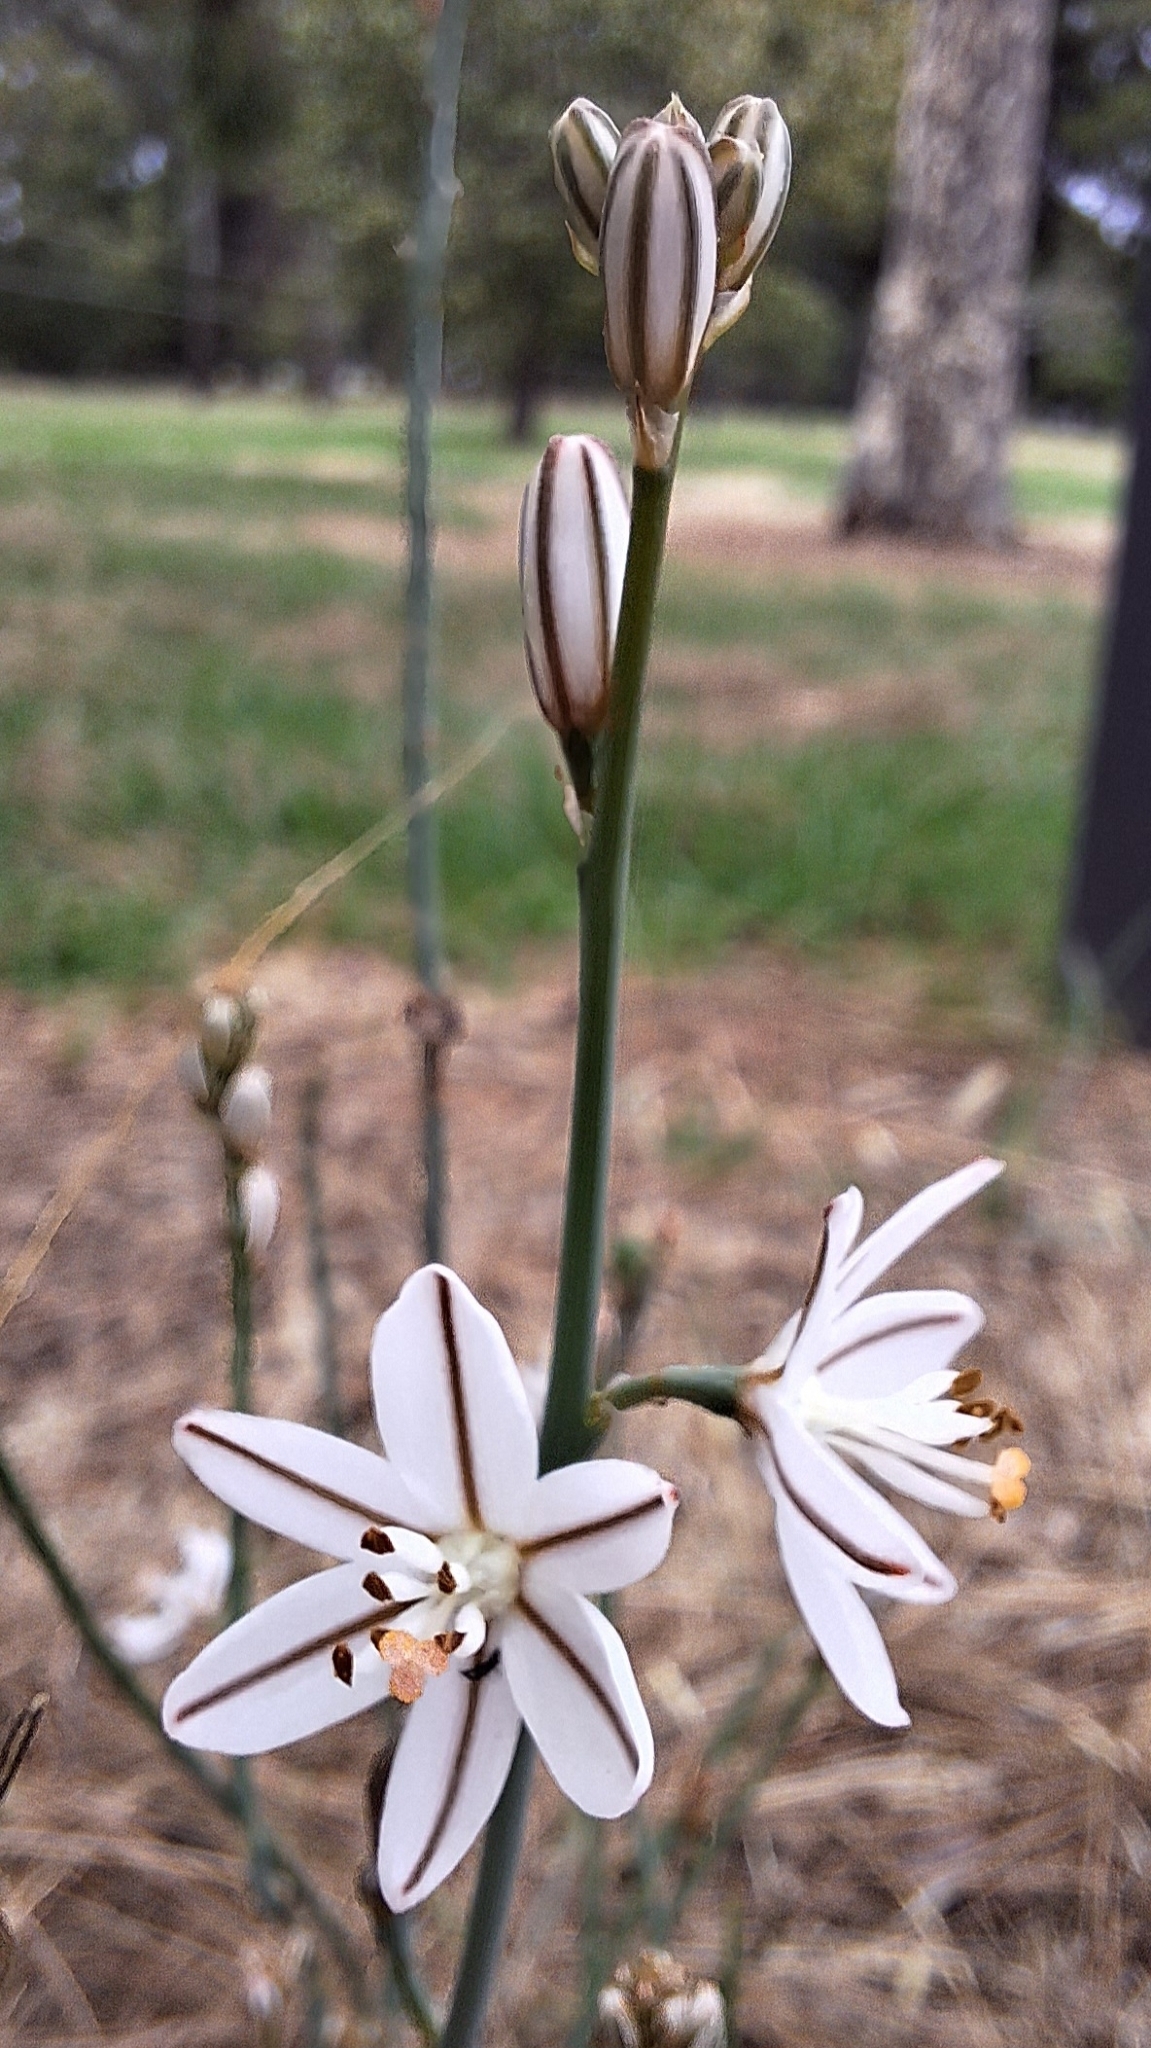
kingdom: Plantae
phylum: Tracheophyta
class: Liliopsida
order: Asparagales
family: Asphodelaceae
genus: Asphodelus
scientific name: Asphodelus fistulosus
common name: Onionweed
